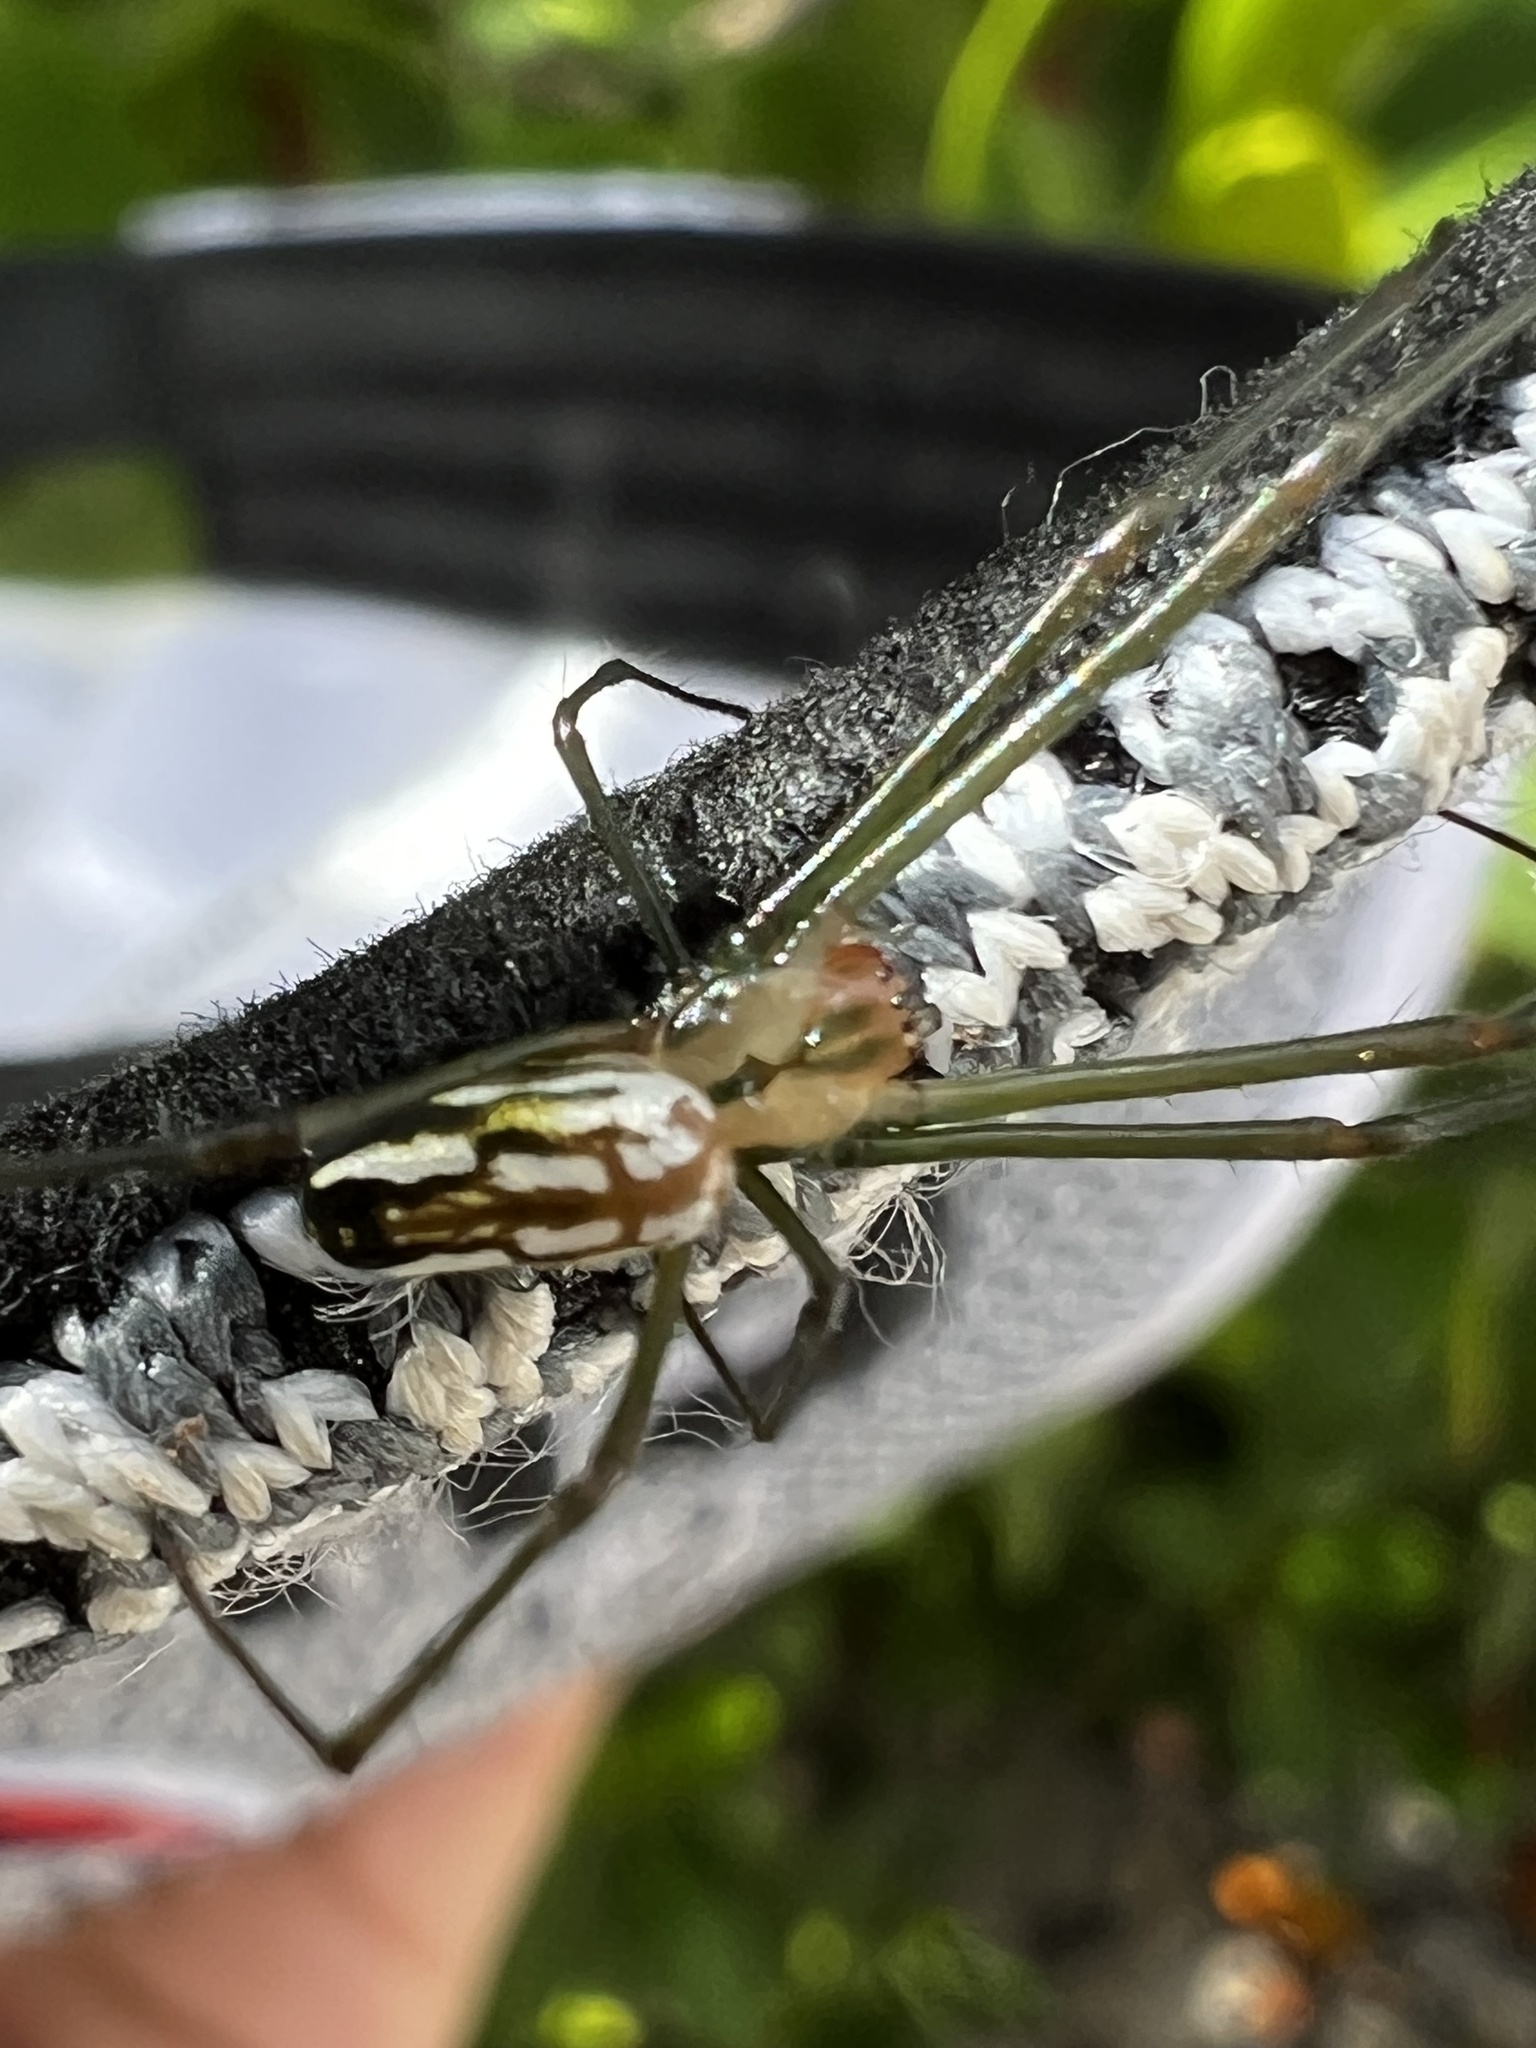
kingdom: Animalia
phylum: Arthropoda
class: Arachnida
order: Araneae
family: Tetragnathidae
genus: Leucauge
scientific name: Leucauge argyra
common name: Longjawed orb weavers
